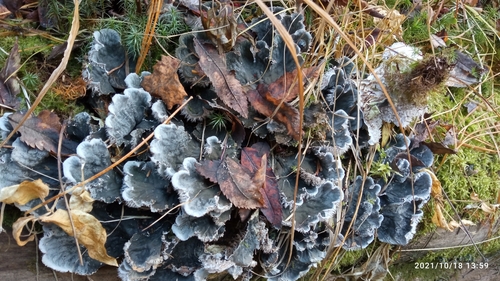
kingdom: Fungi
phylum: Ascomycota
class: Lecanoromycetes
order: Peltigerales
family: Peltigeraceae
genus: Peltigera
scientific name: Peltigera canina
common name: Dog pelt lichen
